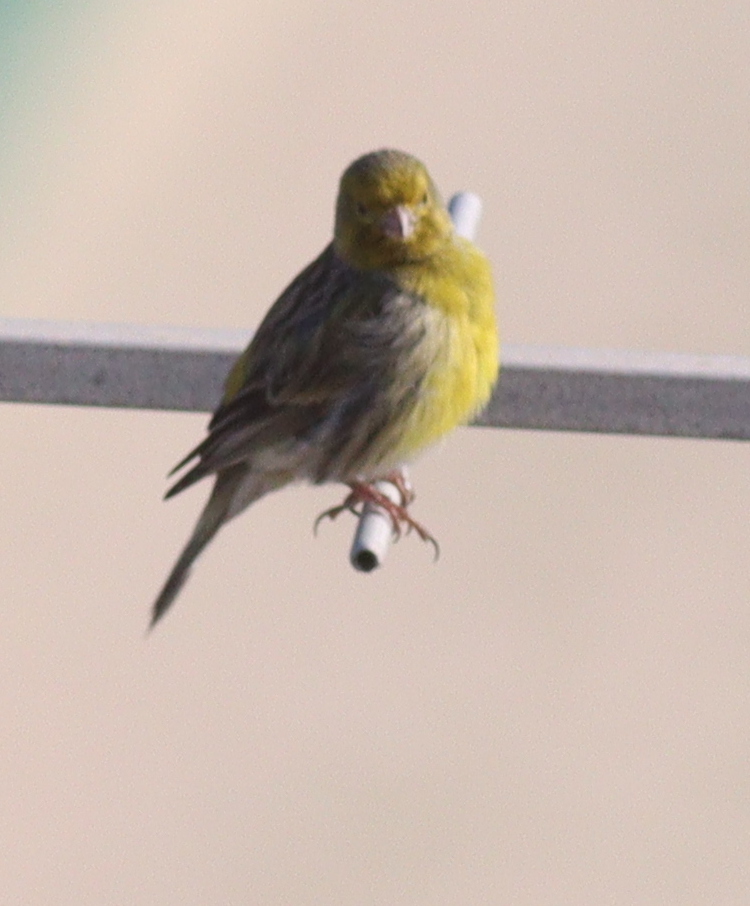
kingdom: Animalia
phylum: Chordata
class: Aves
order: Passeriformes
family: Fringillidae
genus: Serinus
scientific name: Serinus canaria
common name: Atlantic canary
